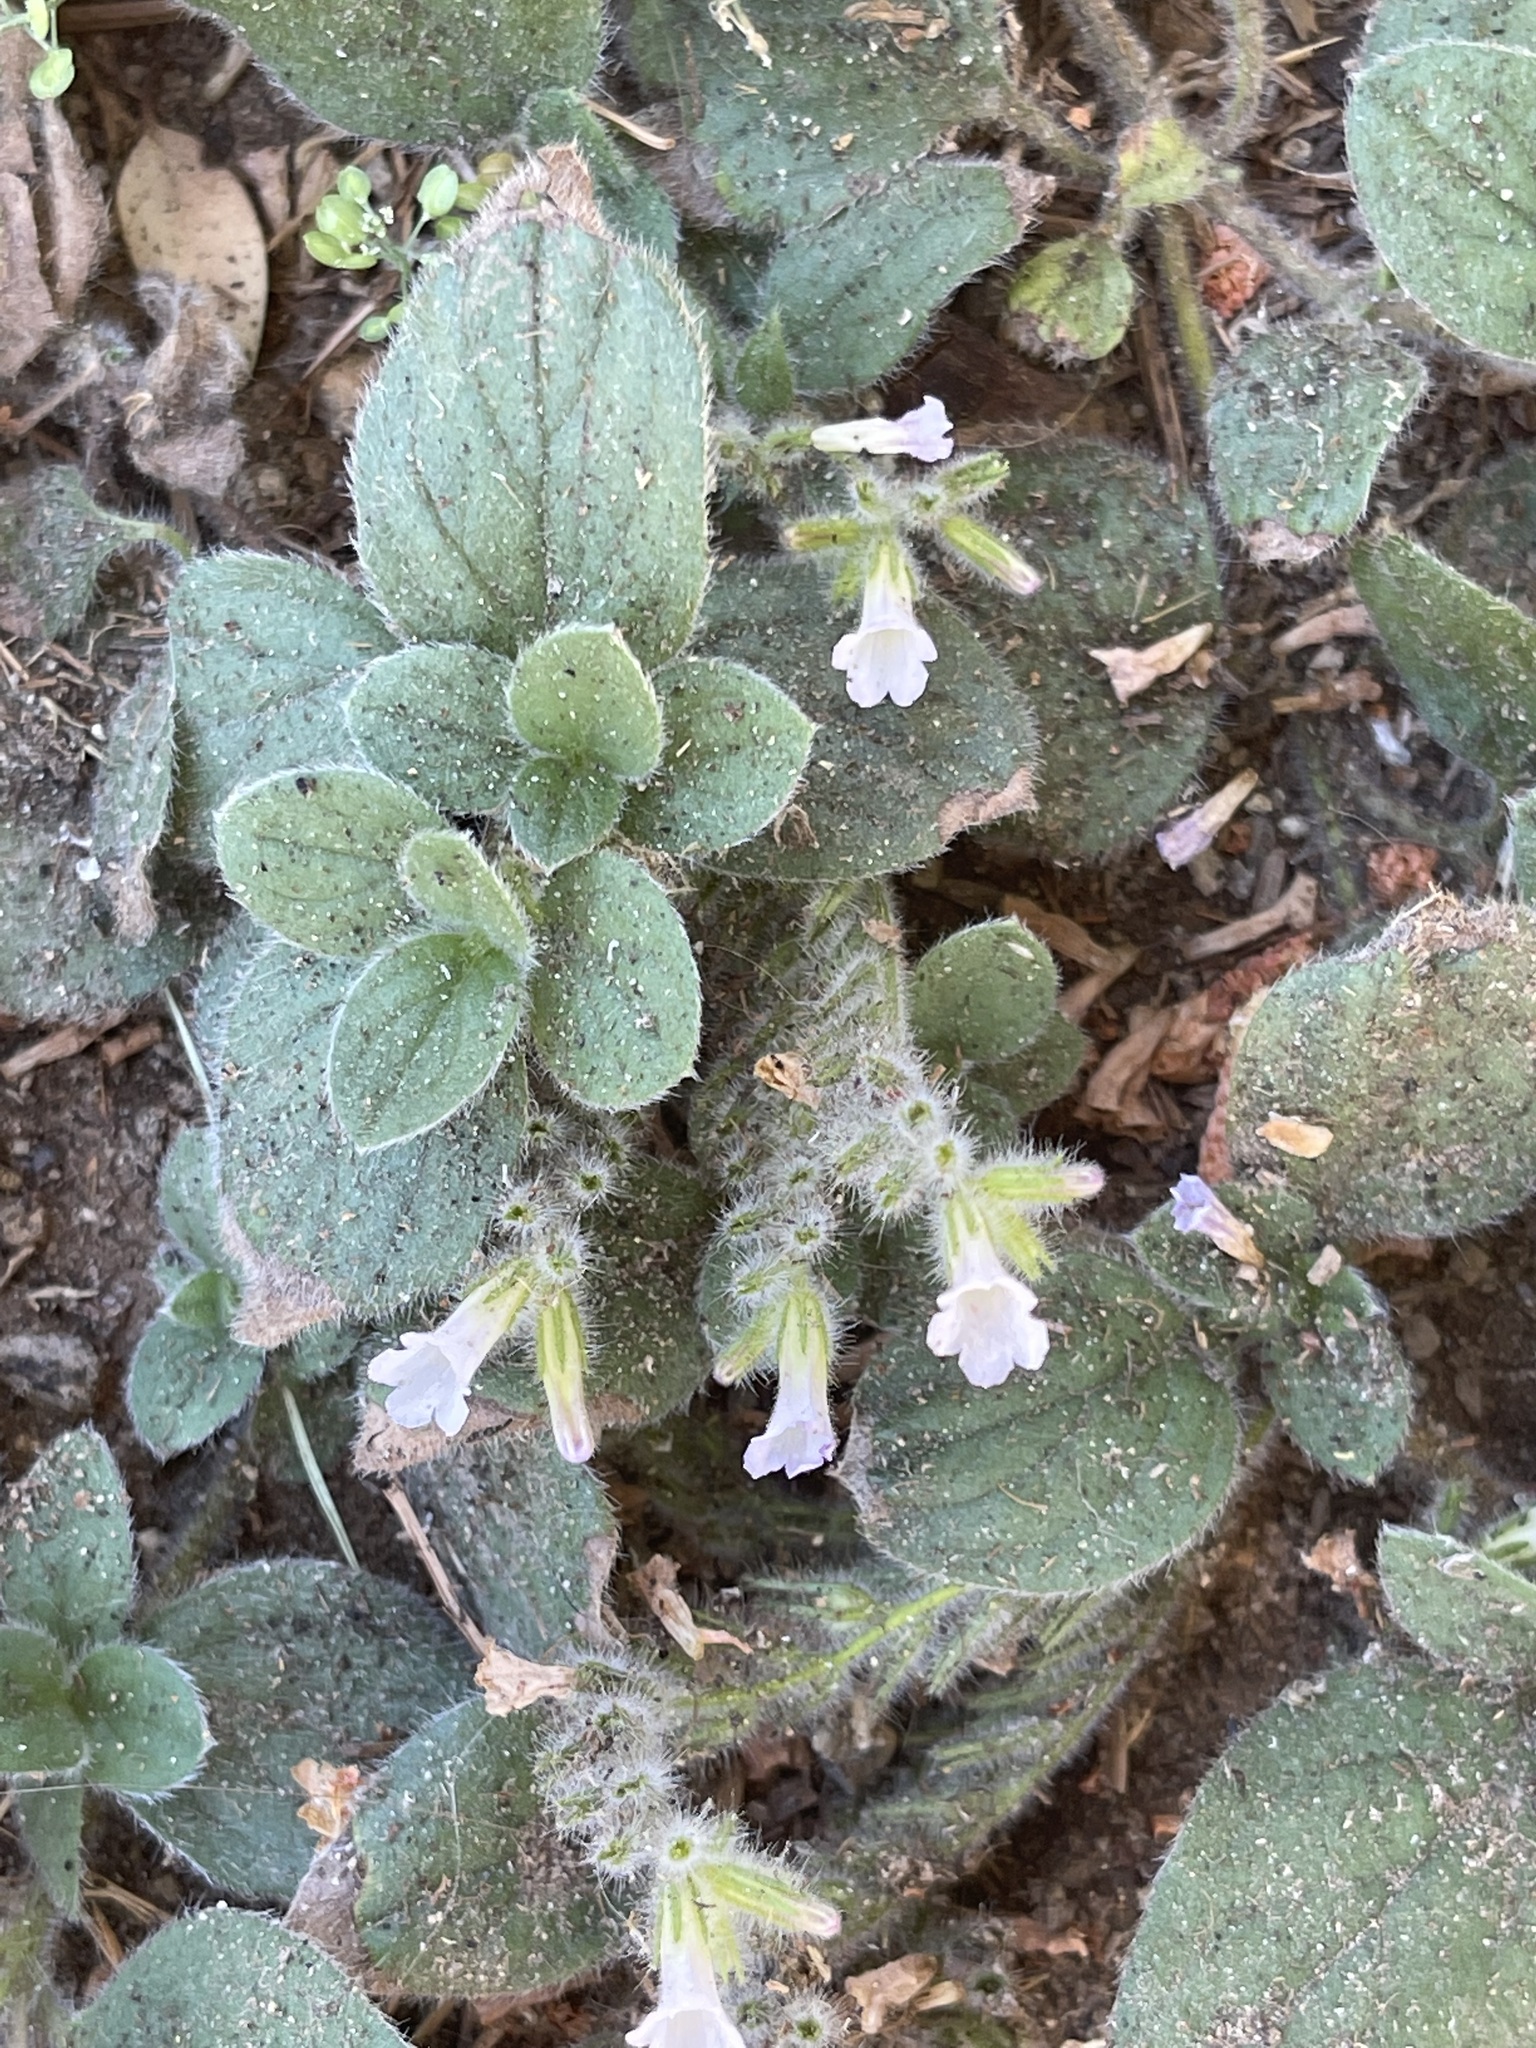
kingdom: Plantae
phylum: Tracheophyta
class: Magnoliopsida
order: Boraginales
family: Hydrophyllaceae
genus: Draperia
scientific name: Draperia systyla
